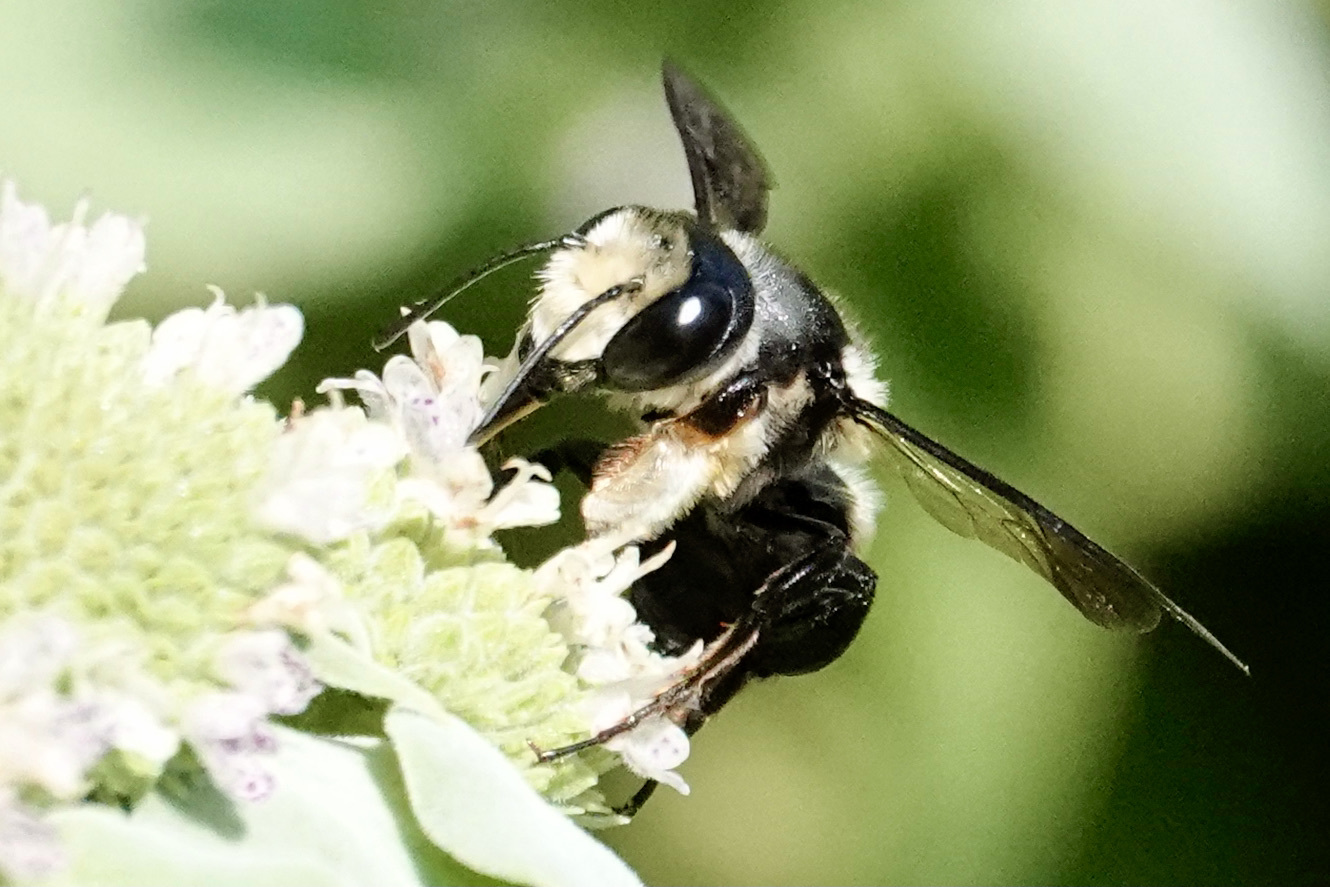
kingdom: Animalia
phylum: Arthropoda
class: Insecta
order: Hymenoptera
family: Megachilidae
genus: Megachile
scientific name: Megachile xylocopoides
